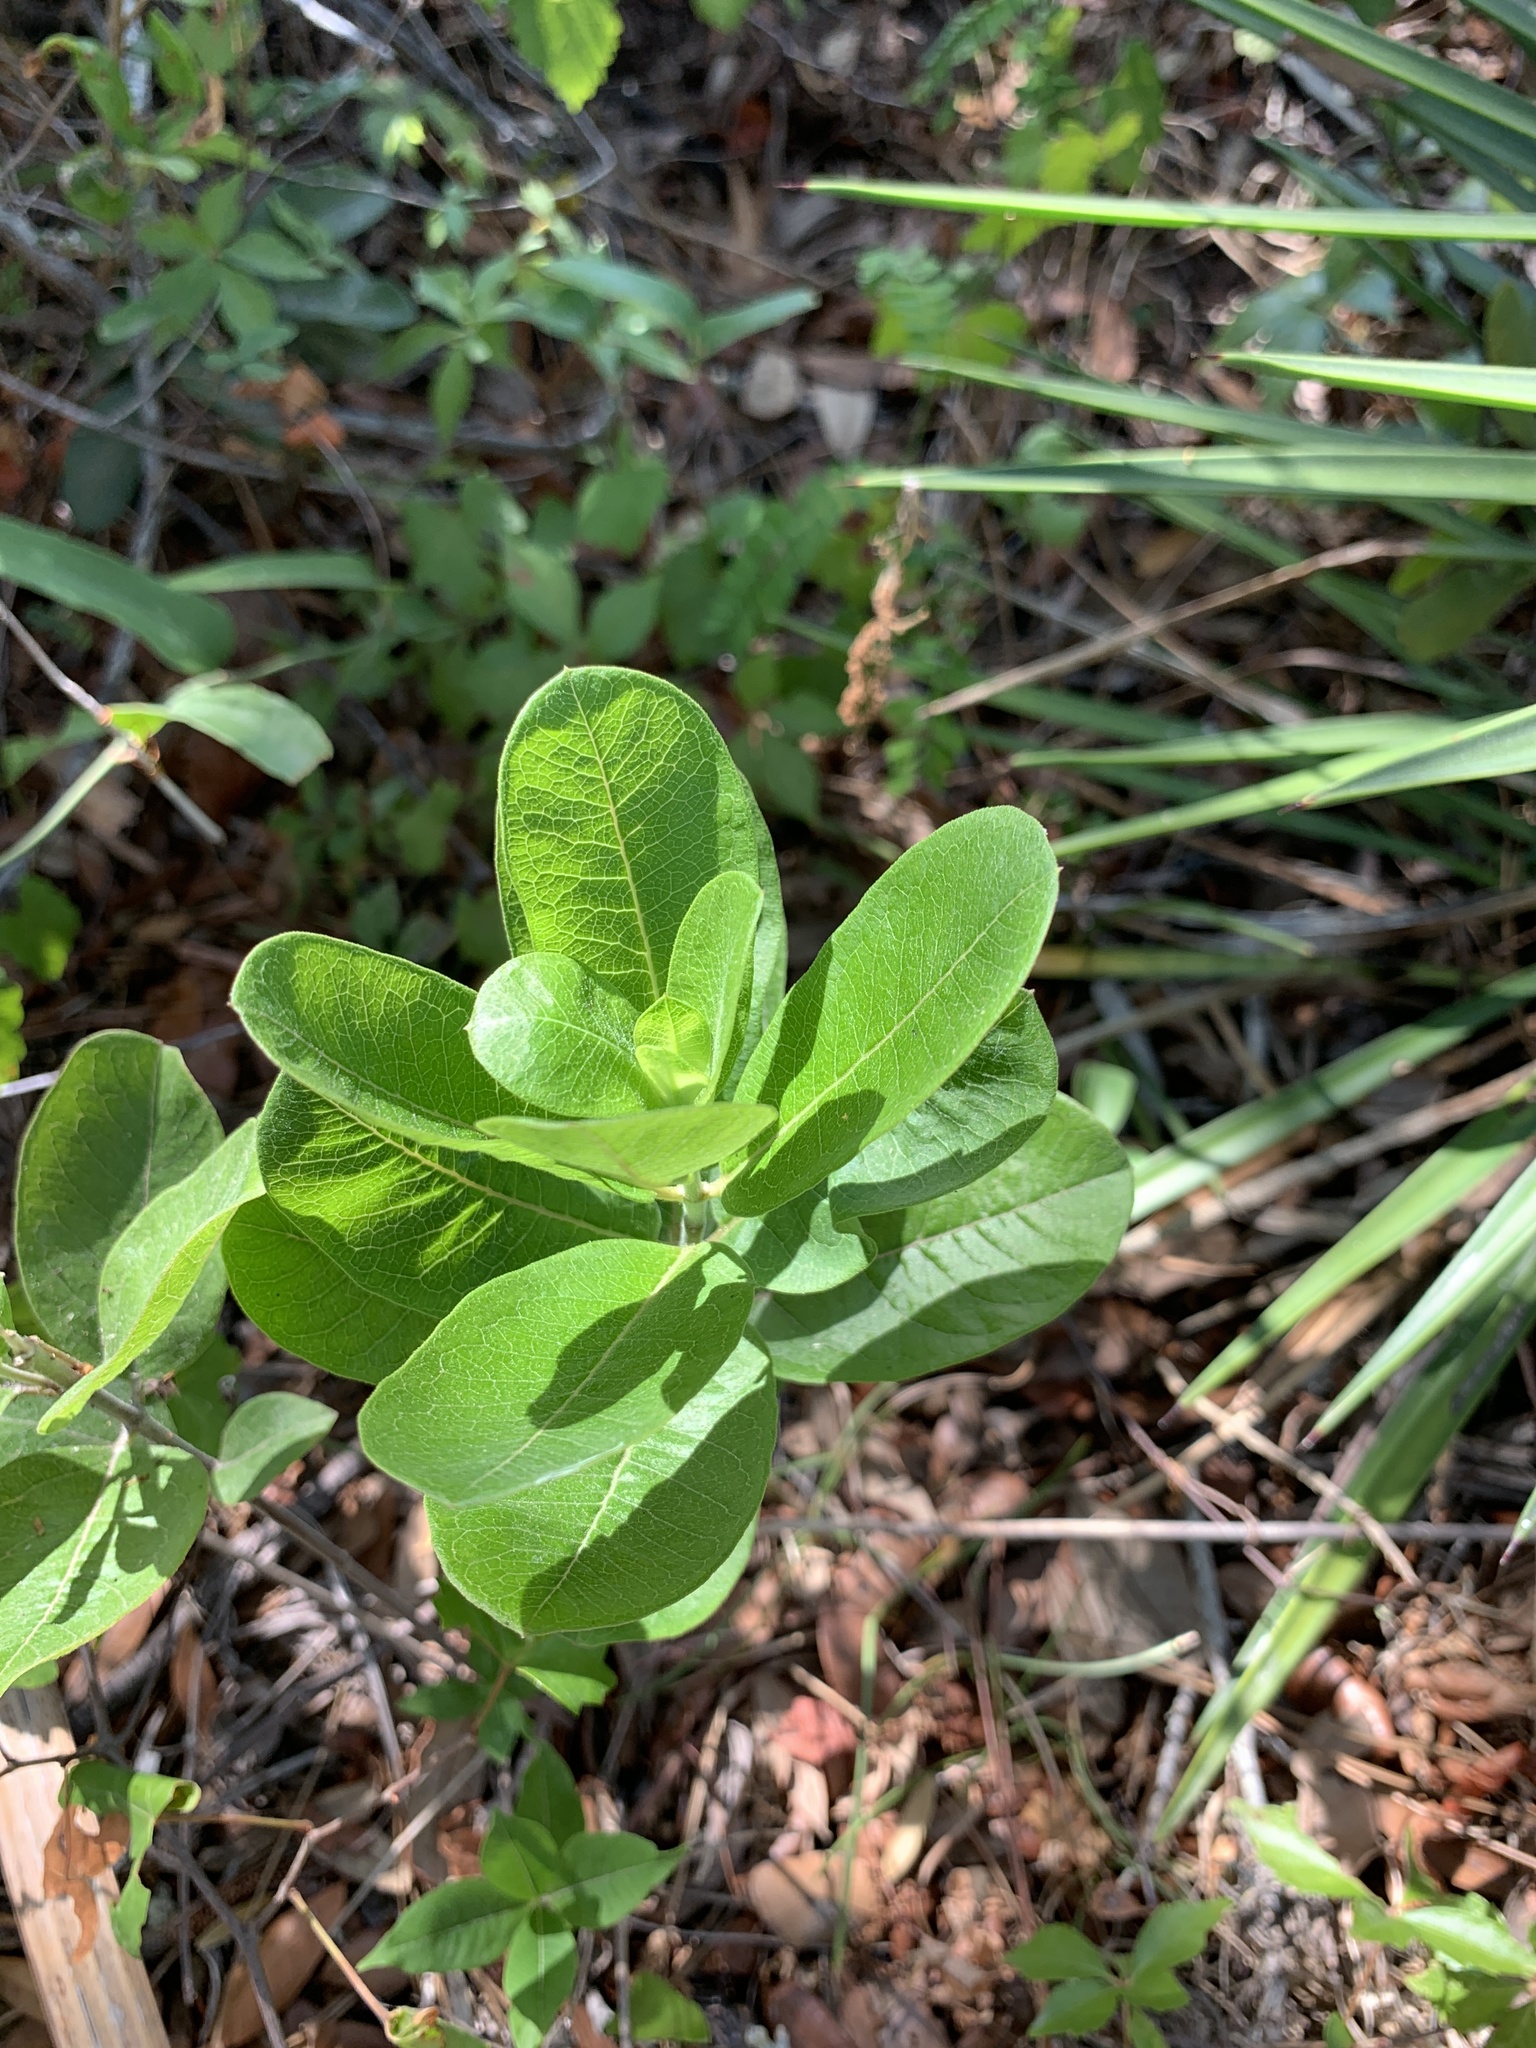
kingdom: Plantae
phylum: Tracheophyta
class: Magnoliopsida
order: Gentianales
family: Apocynaceae
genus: Asclepias
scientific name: Asclepias tomentosa
